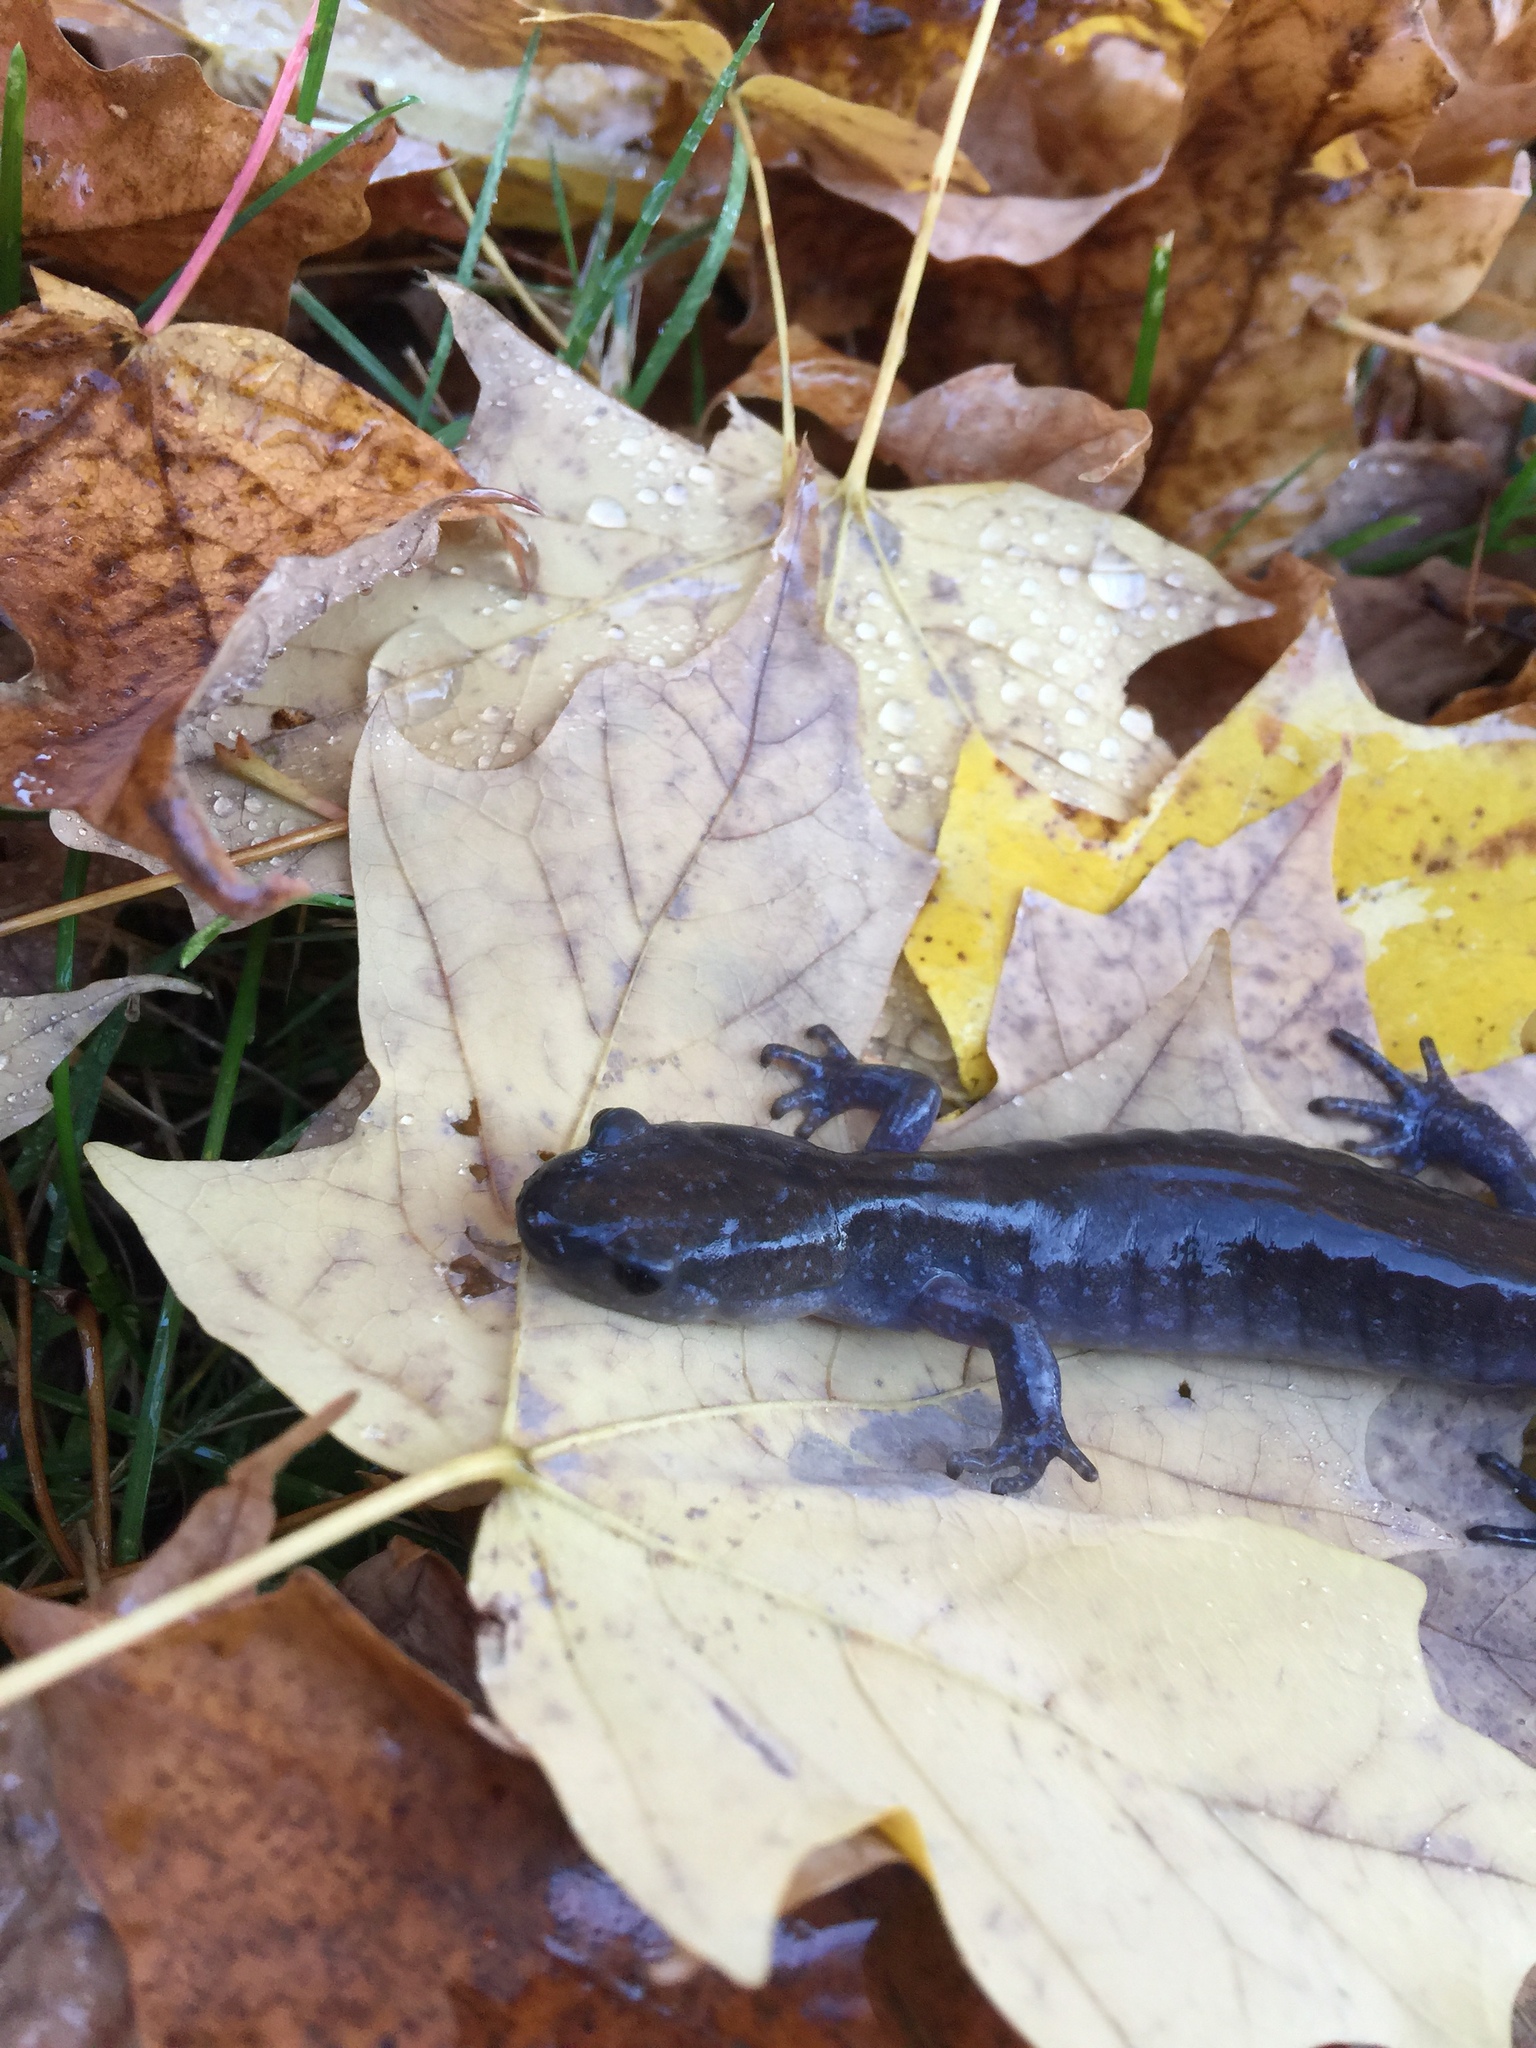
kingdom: Animalia
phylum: Chordata
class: Amphibia
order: Caudata
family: Ambystomatidae
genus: Ambystoma
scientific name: Ambystoma unisexual
